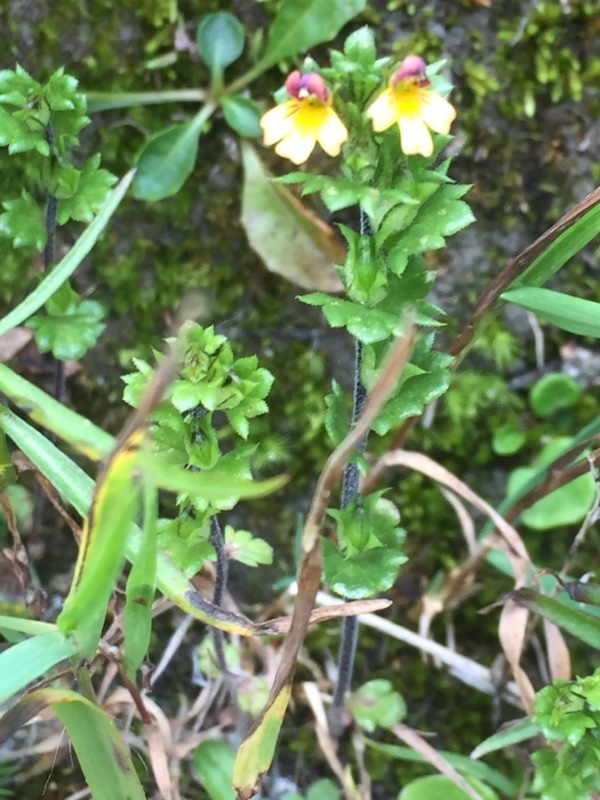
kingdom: Plantae
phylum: Tracheophyta
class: Magnoliopsida
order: Lamiales
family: Orobanchaceae
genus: Euphrasia
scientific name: Euphrasia minima
